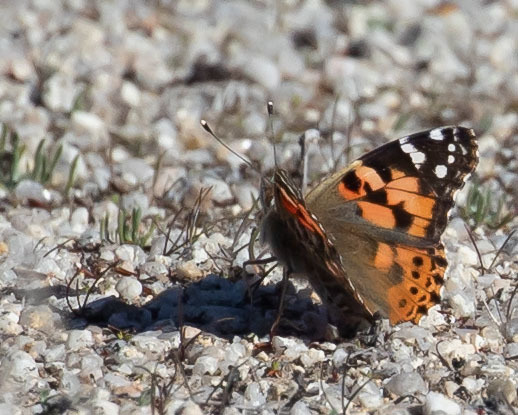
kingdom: Animalia
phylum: Arthropoda
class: Insecta
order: Lepidoptera
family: Nymphalidae
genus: Vanessa
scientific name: Vanessa cardui
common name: Painted lady
